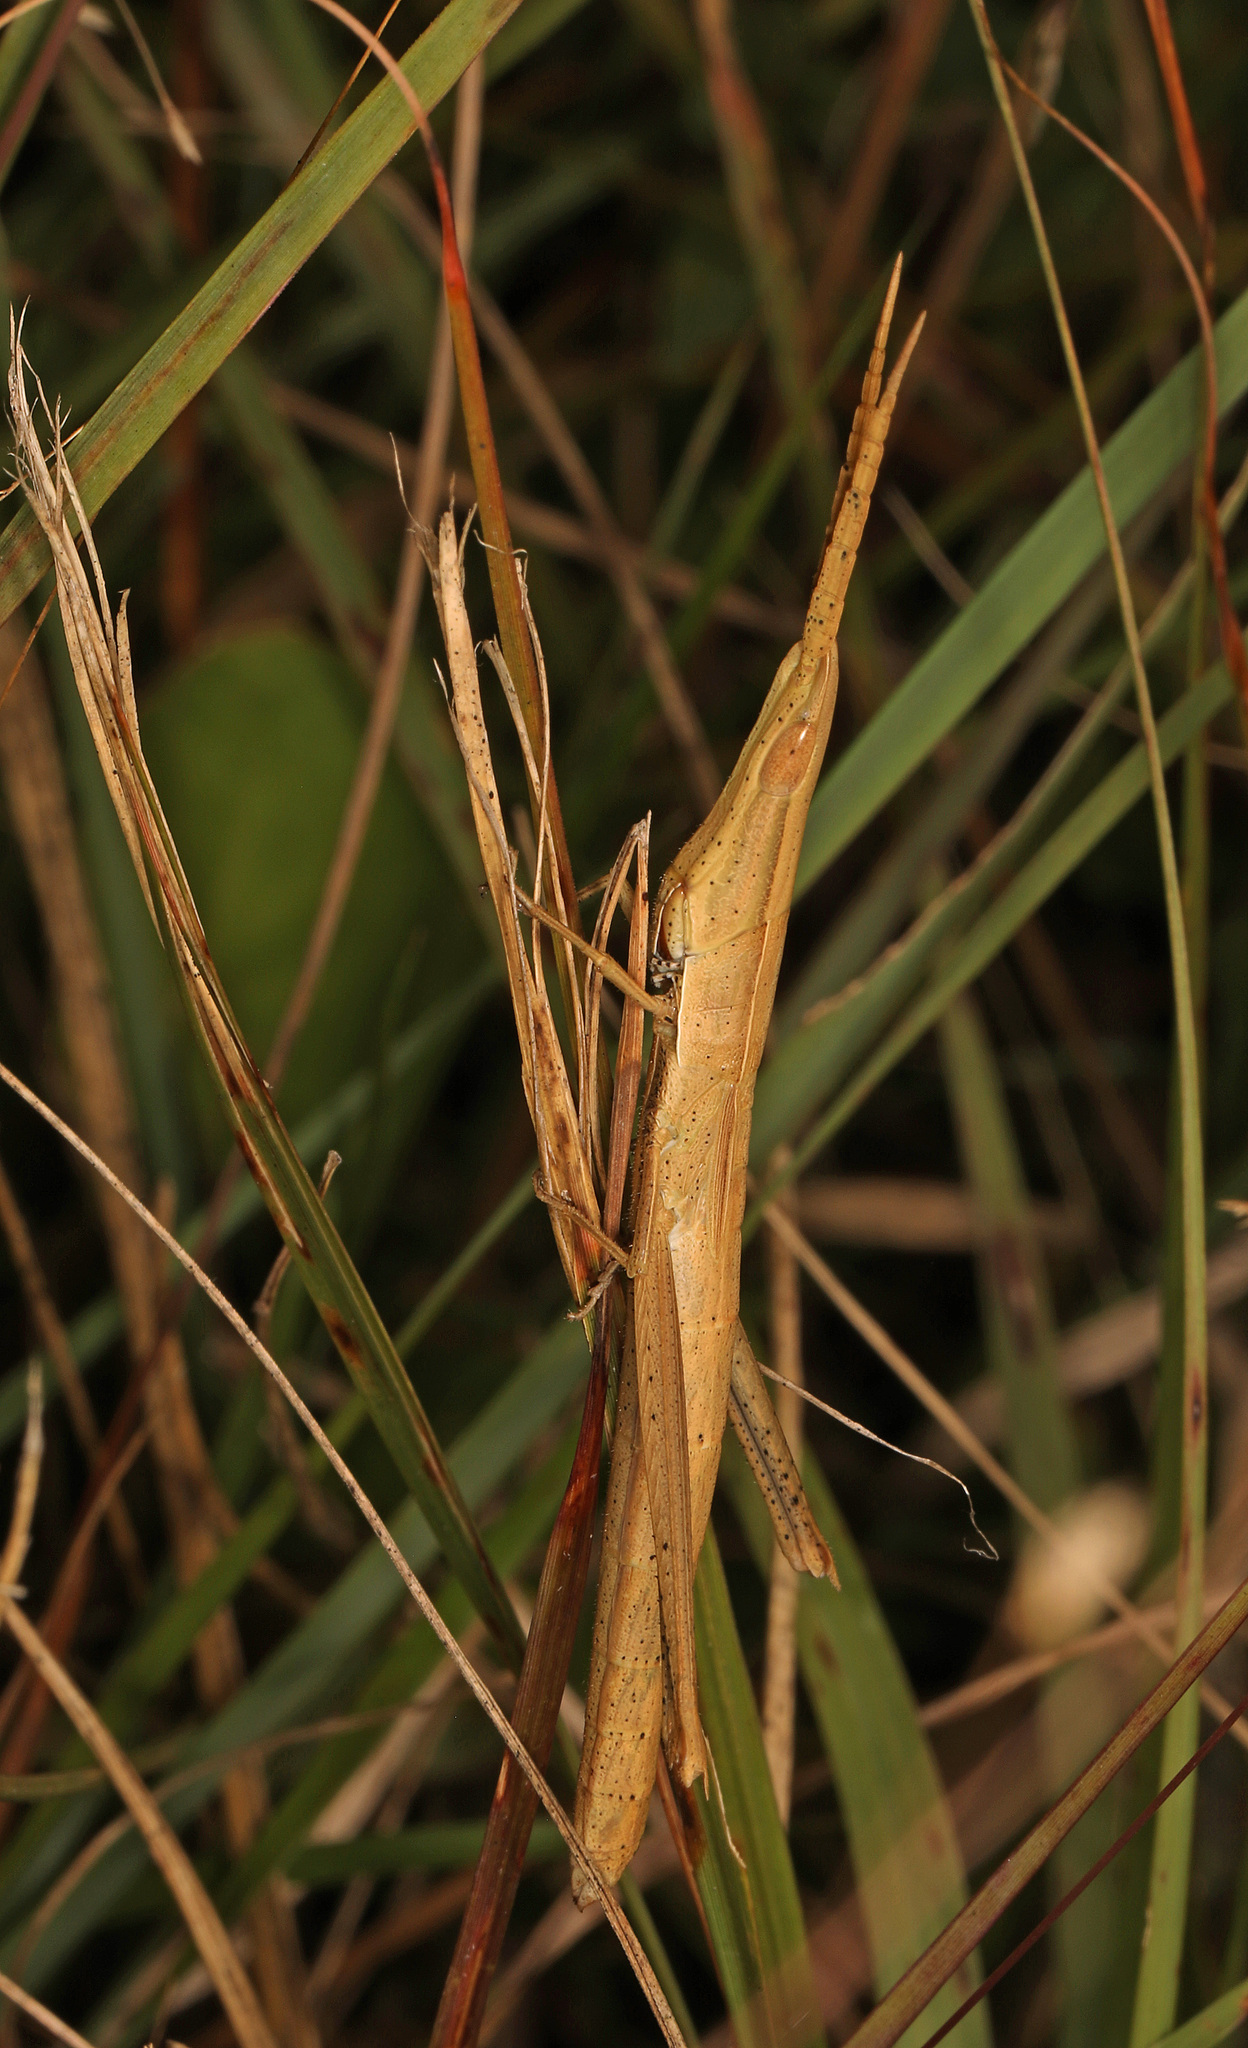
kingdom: Animalia
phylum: Arthropoda
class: Insecta
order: Orthoptera
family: Acrididae
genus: Achurum
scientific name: Achurum carinatum
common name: Long-headed toothpick grasshopper
